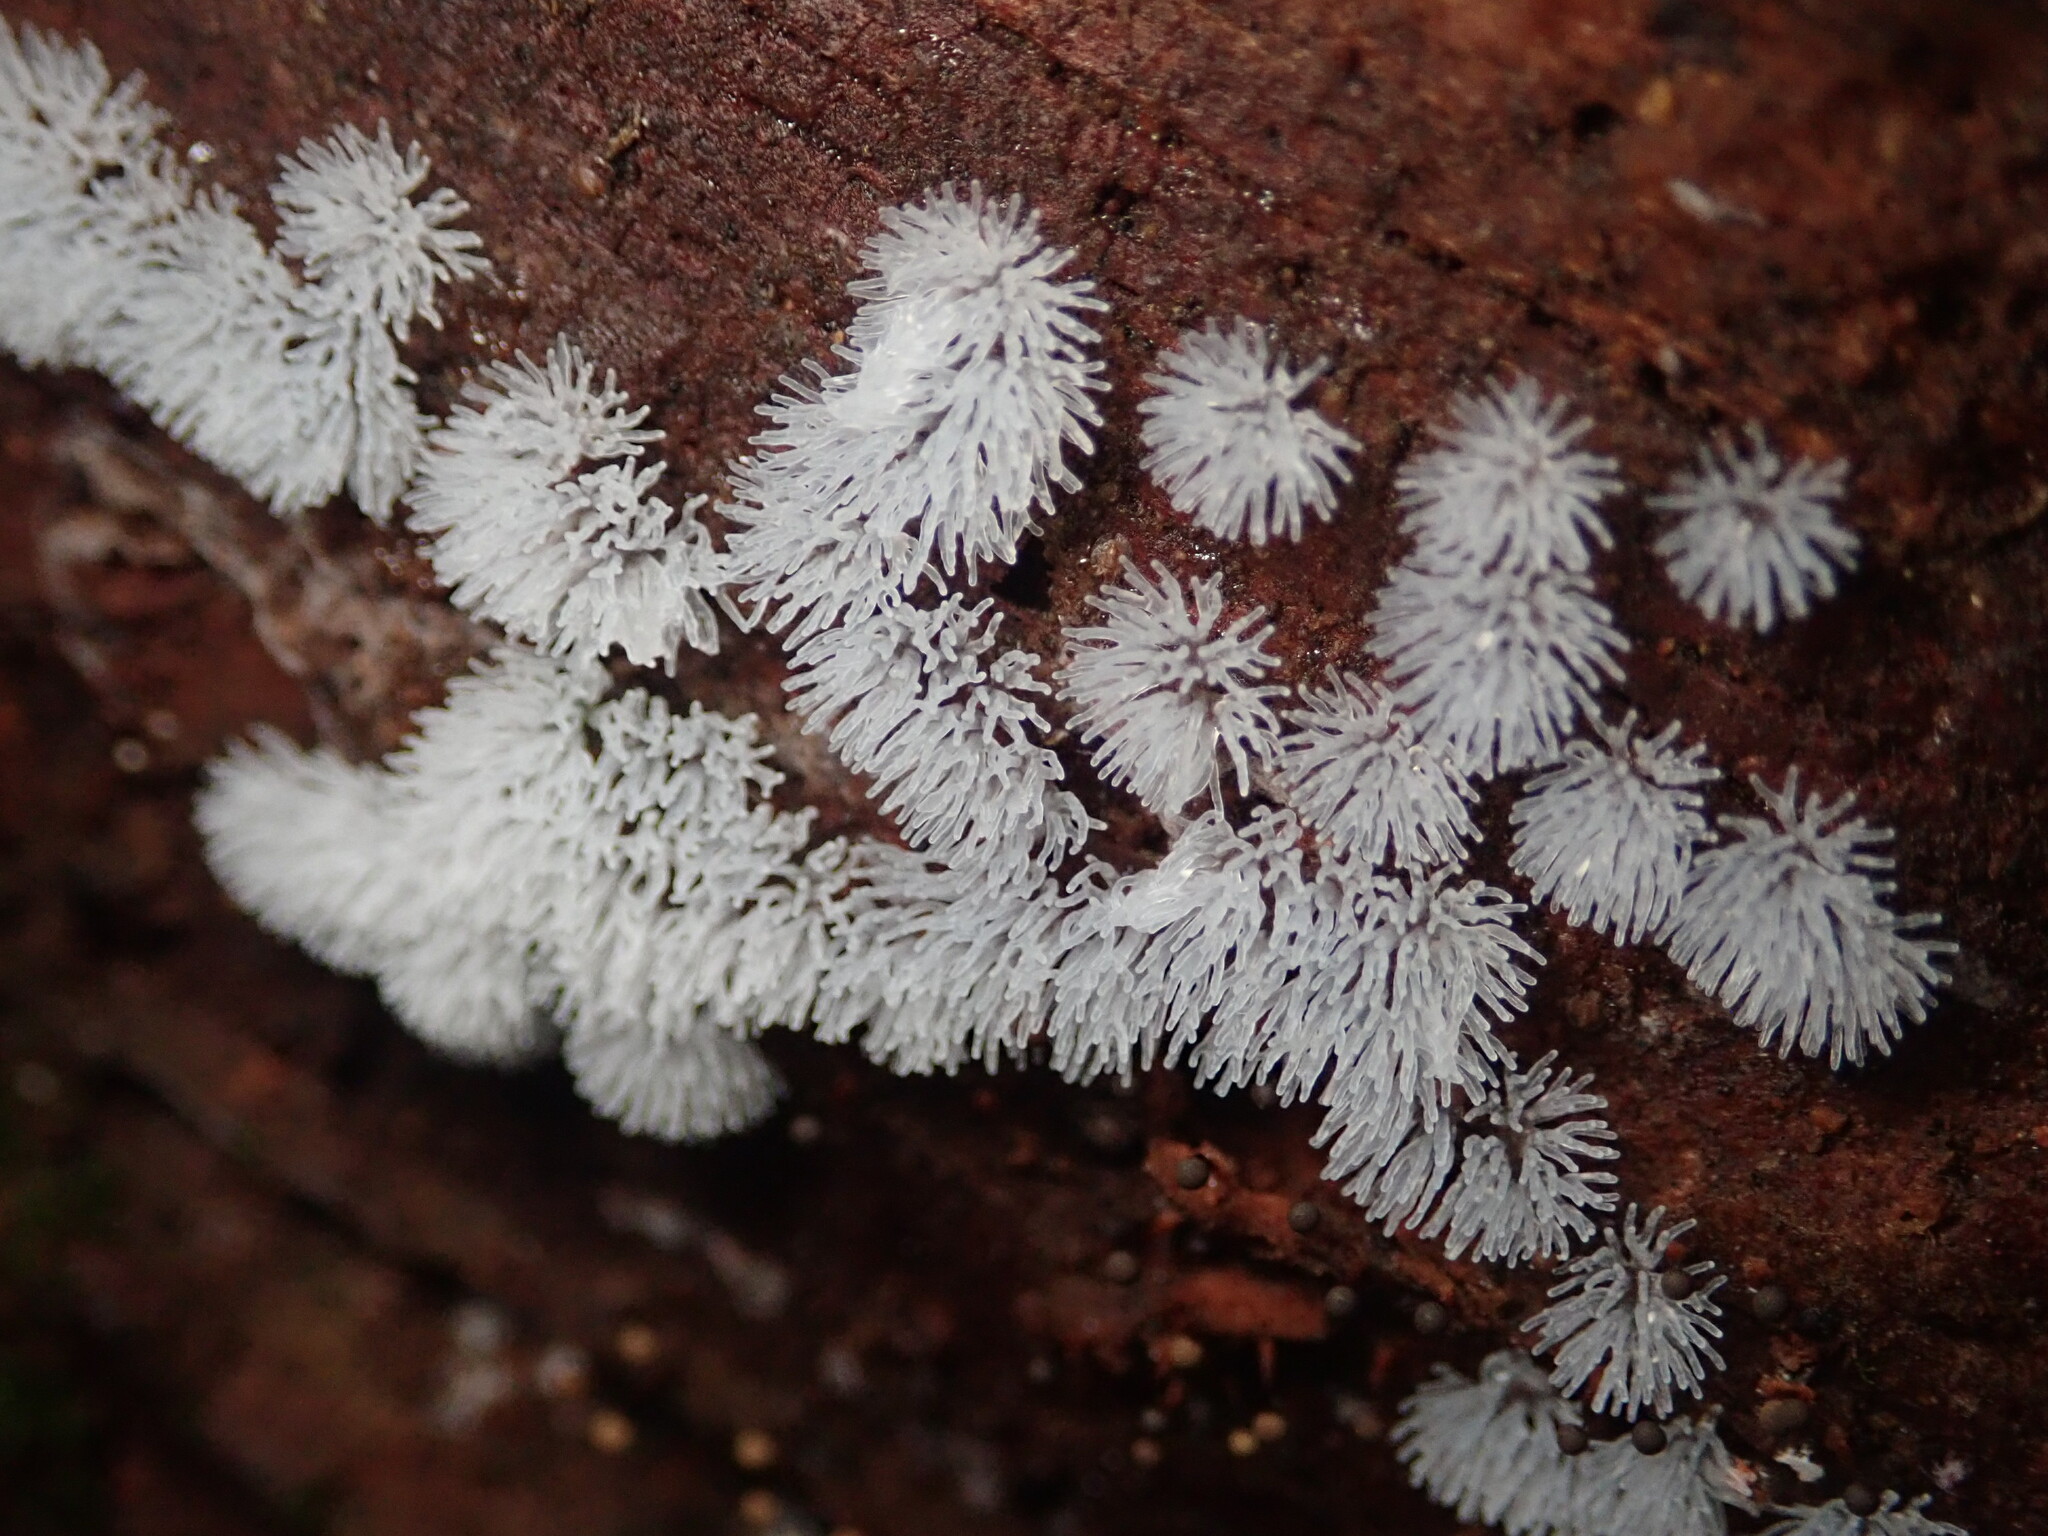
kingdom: Protozoa
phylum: Mycetozoa
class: Protosteliomycetes
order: Ceratiomyxales
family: Ceratiomyxaceae
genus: Ceratiomyxa
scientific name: Ceratiomyxa fruticulosa
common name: Honeycomb coral slime mold
